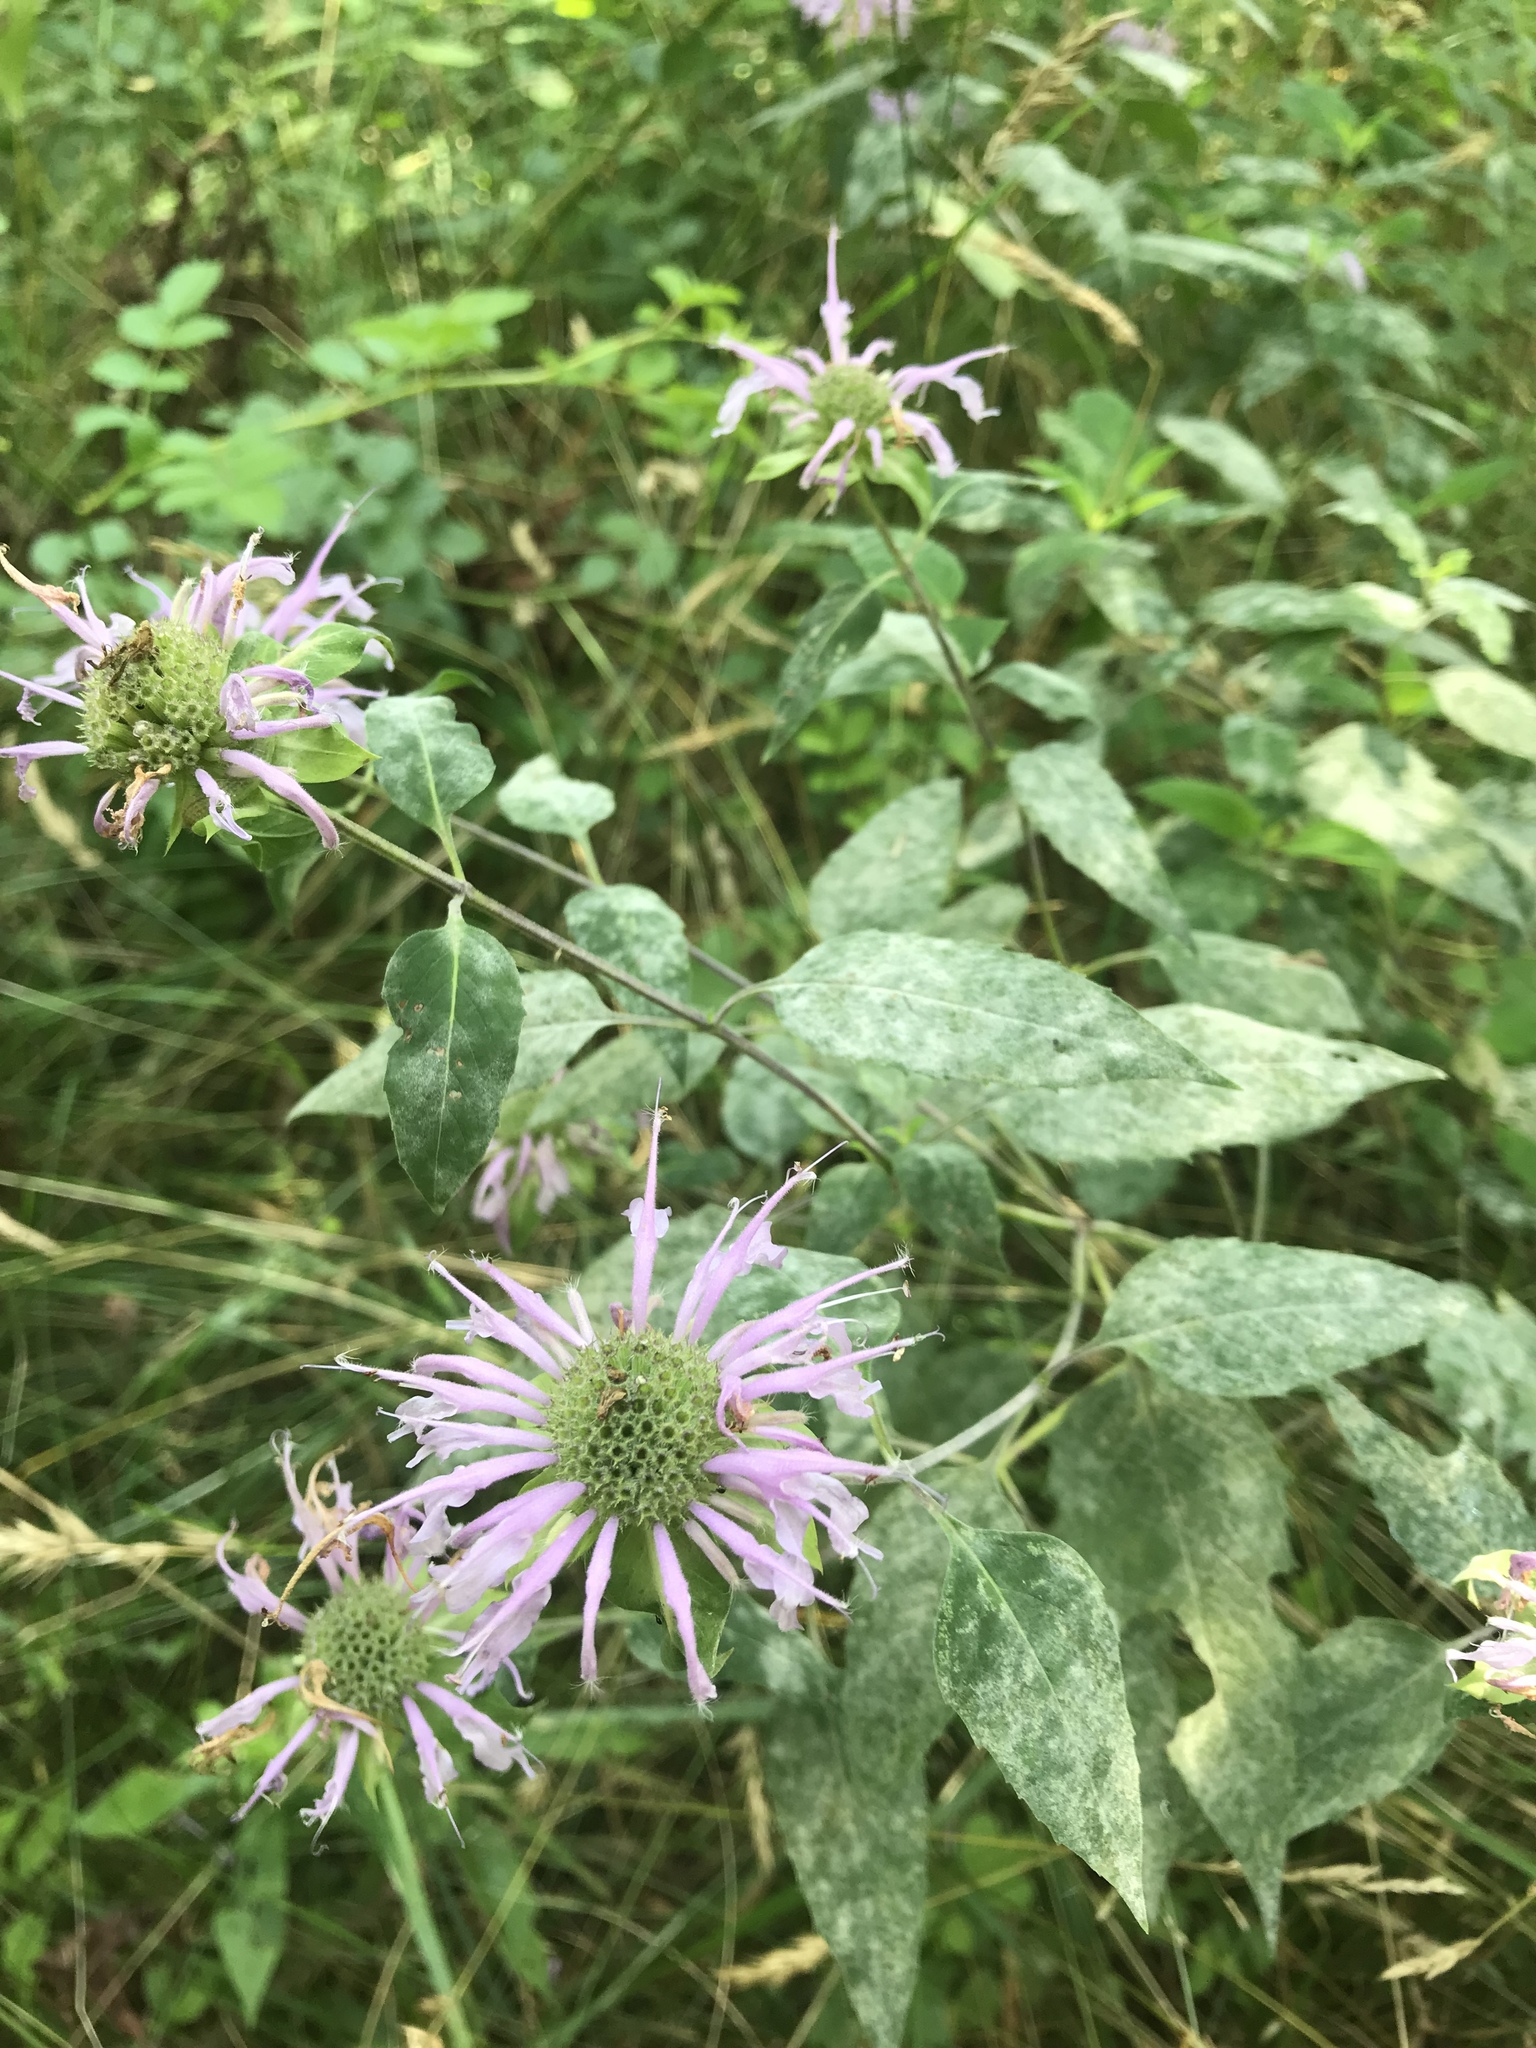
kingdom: Plantae
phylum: Tracheophyta
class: Magnoliopsida
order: Lamiales
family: Lamiaceae
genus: Monarda
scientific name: Monarda fistulosa
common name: Purple beebalm
